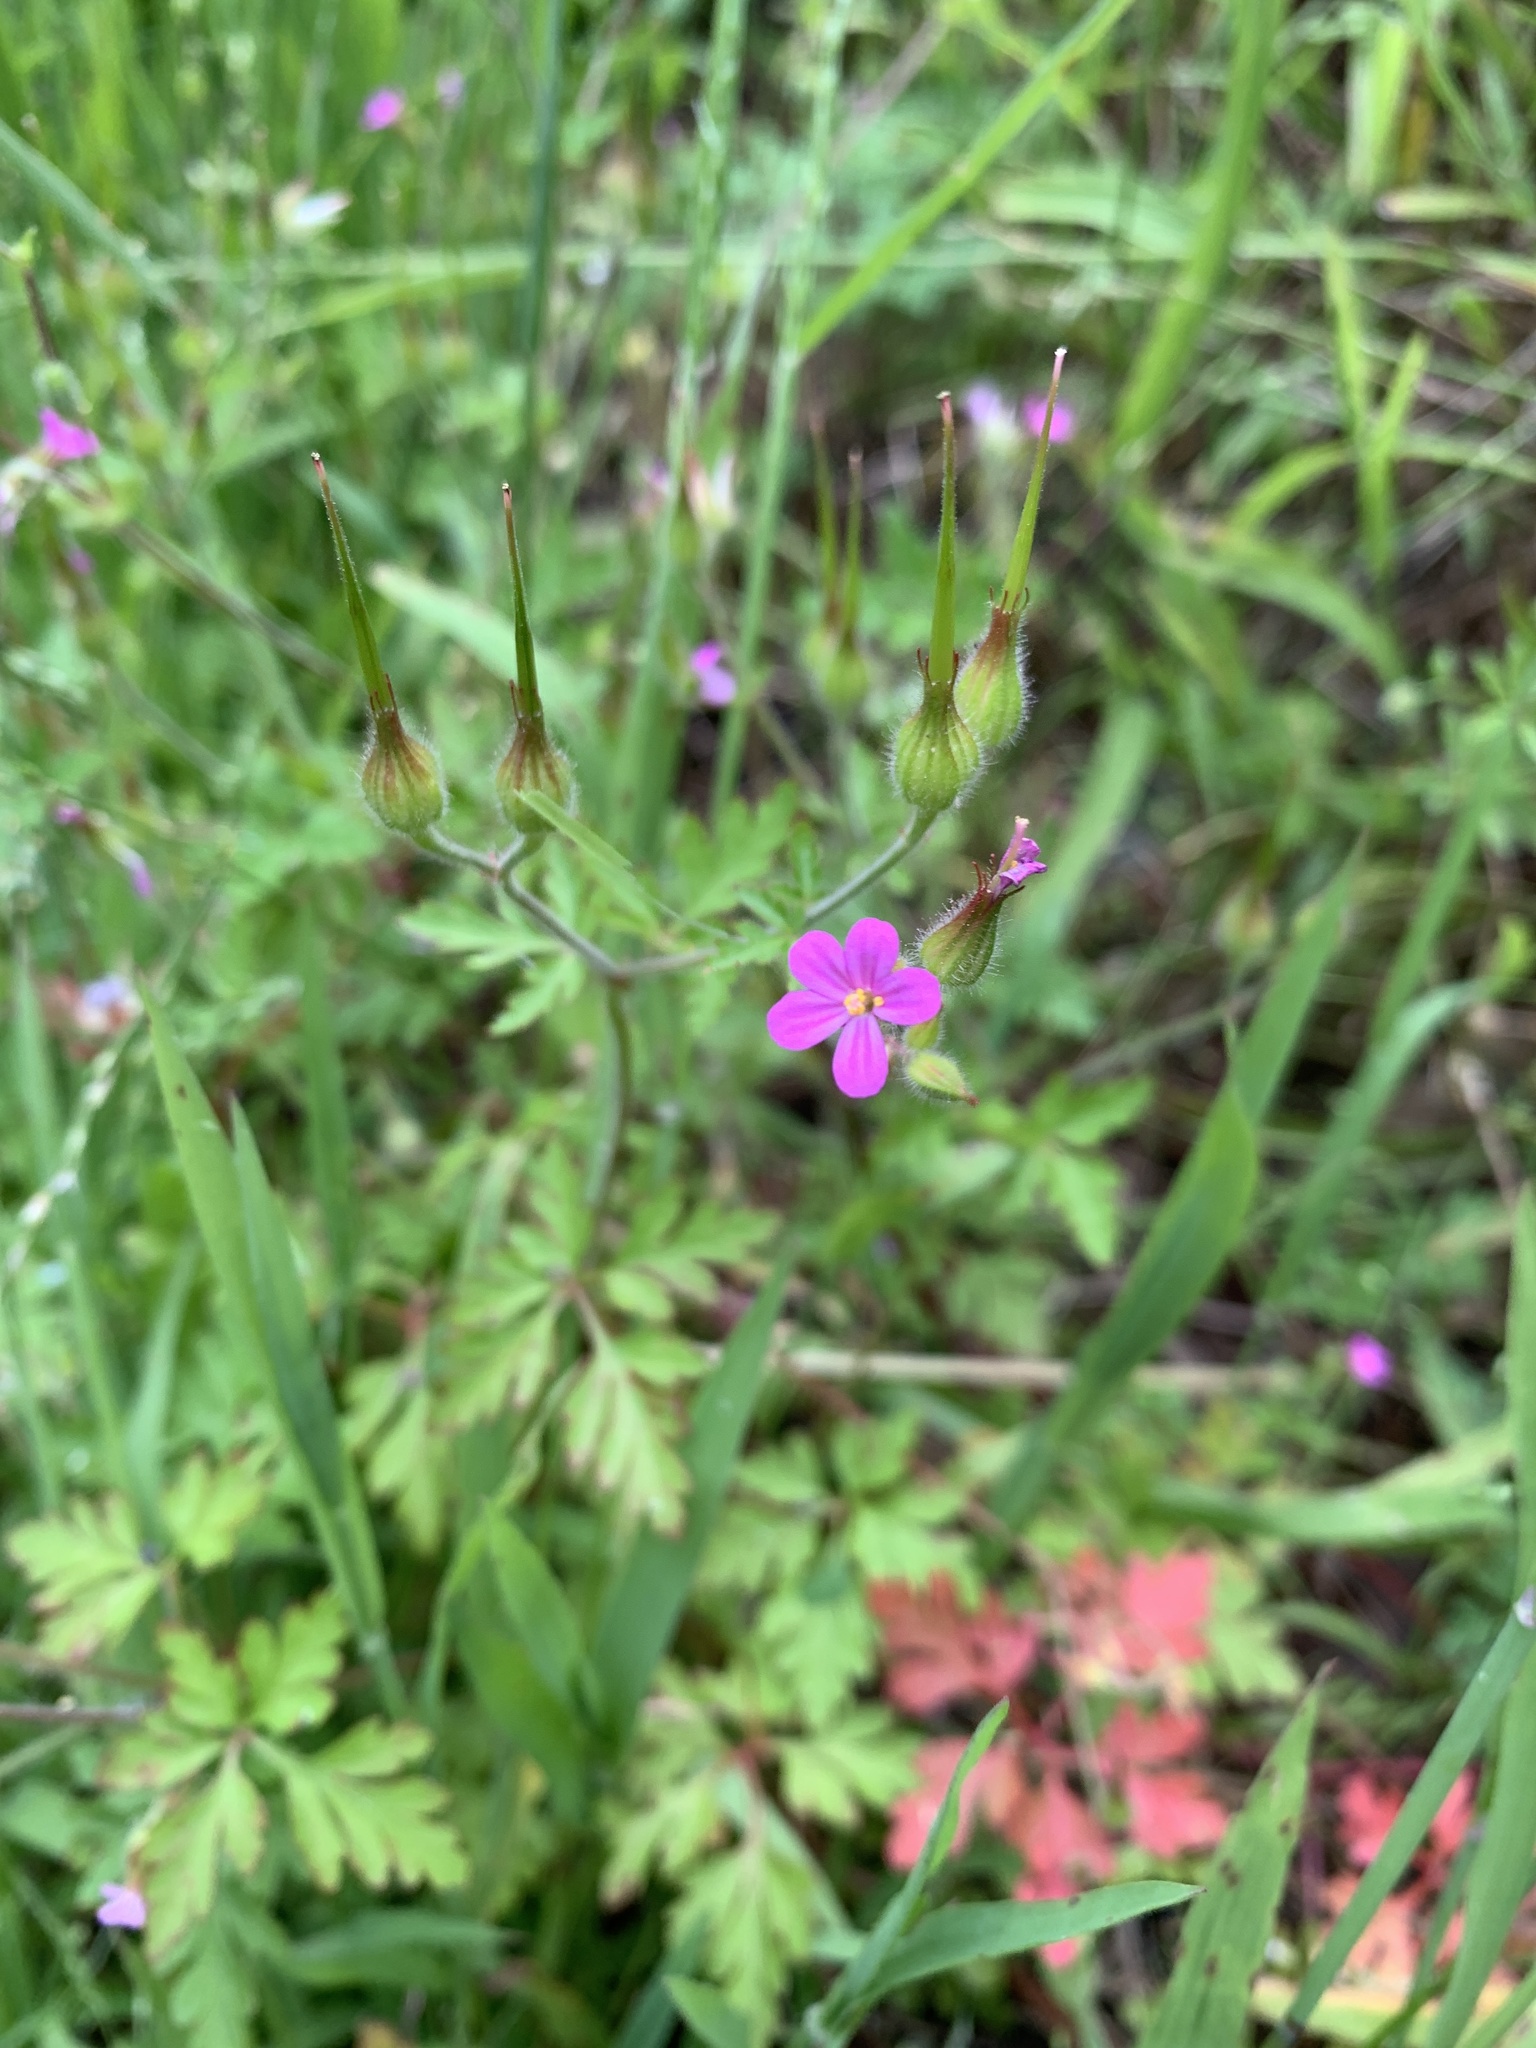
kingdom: Plantae
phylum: Tracheophyta
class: Magnoliopsida
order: Geraniales
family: Geraniaceae
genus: Geranium
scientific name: Geranium purpureum
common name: Little-robin
